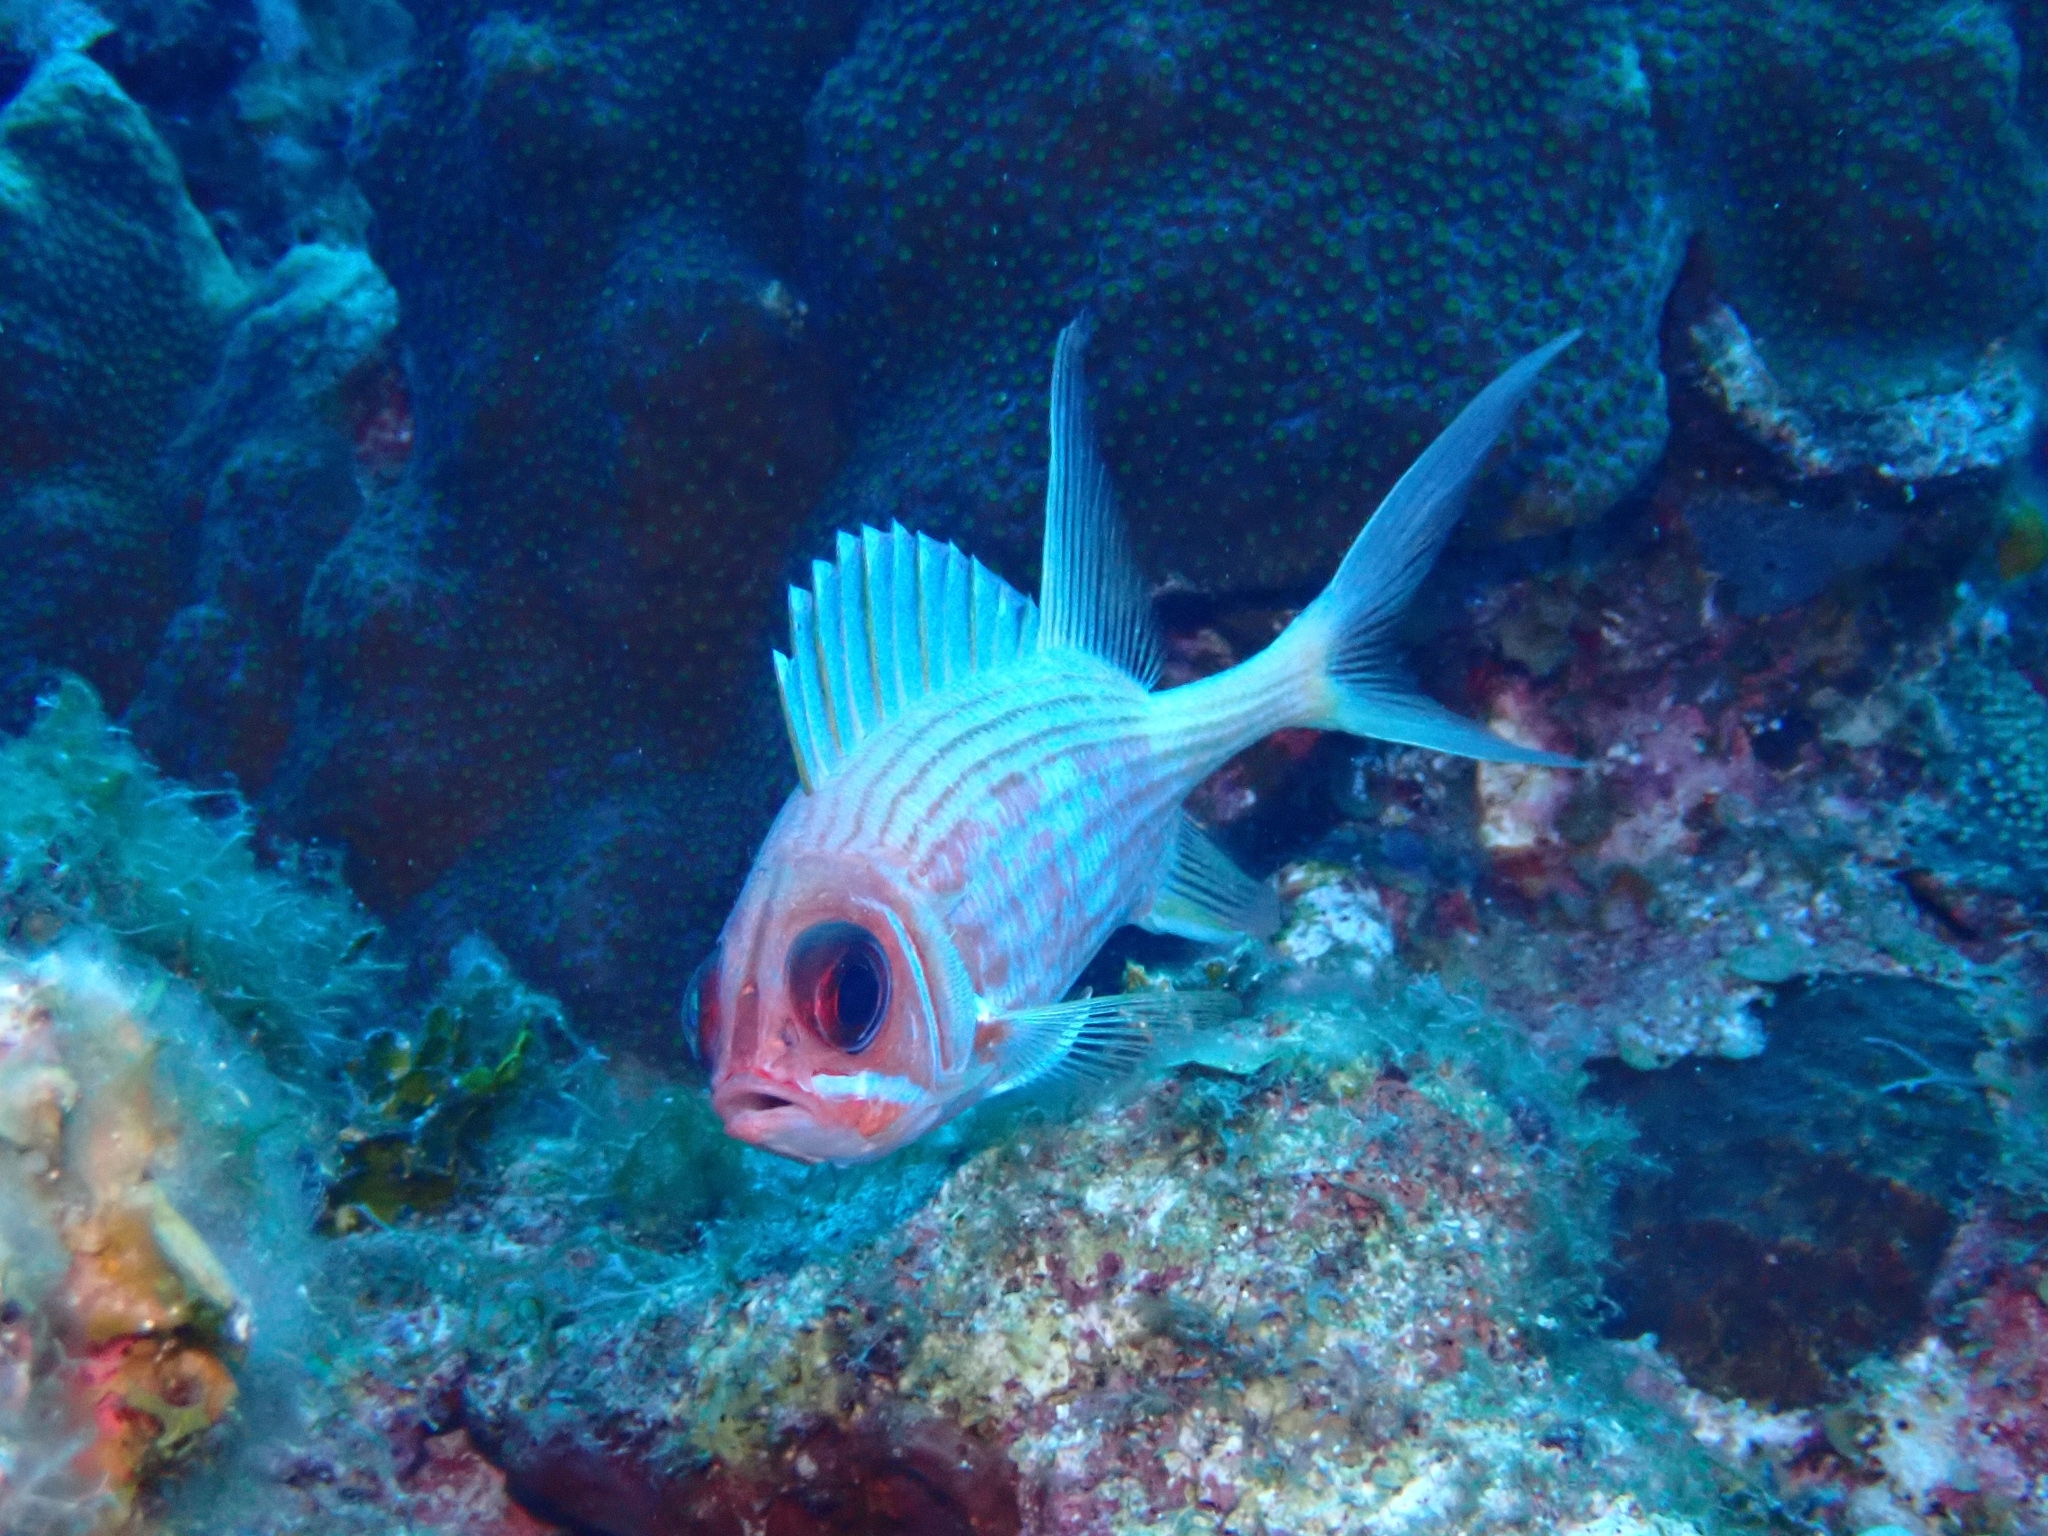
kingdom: Animalia
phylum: Chordata
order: Beryciformes
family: Holocentridae
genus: Holocentrus
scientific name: Holocentrus rufus
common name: Longspine squirrelfish
